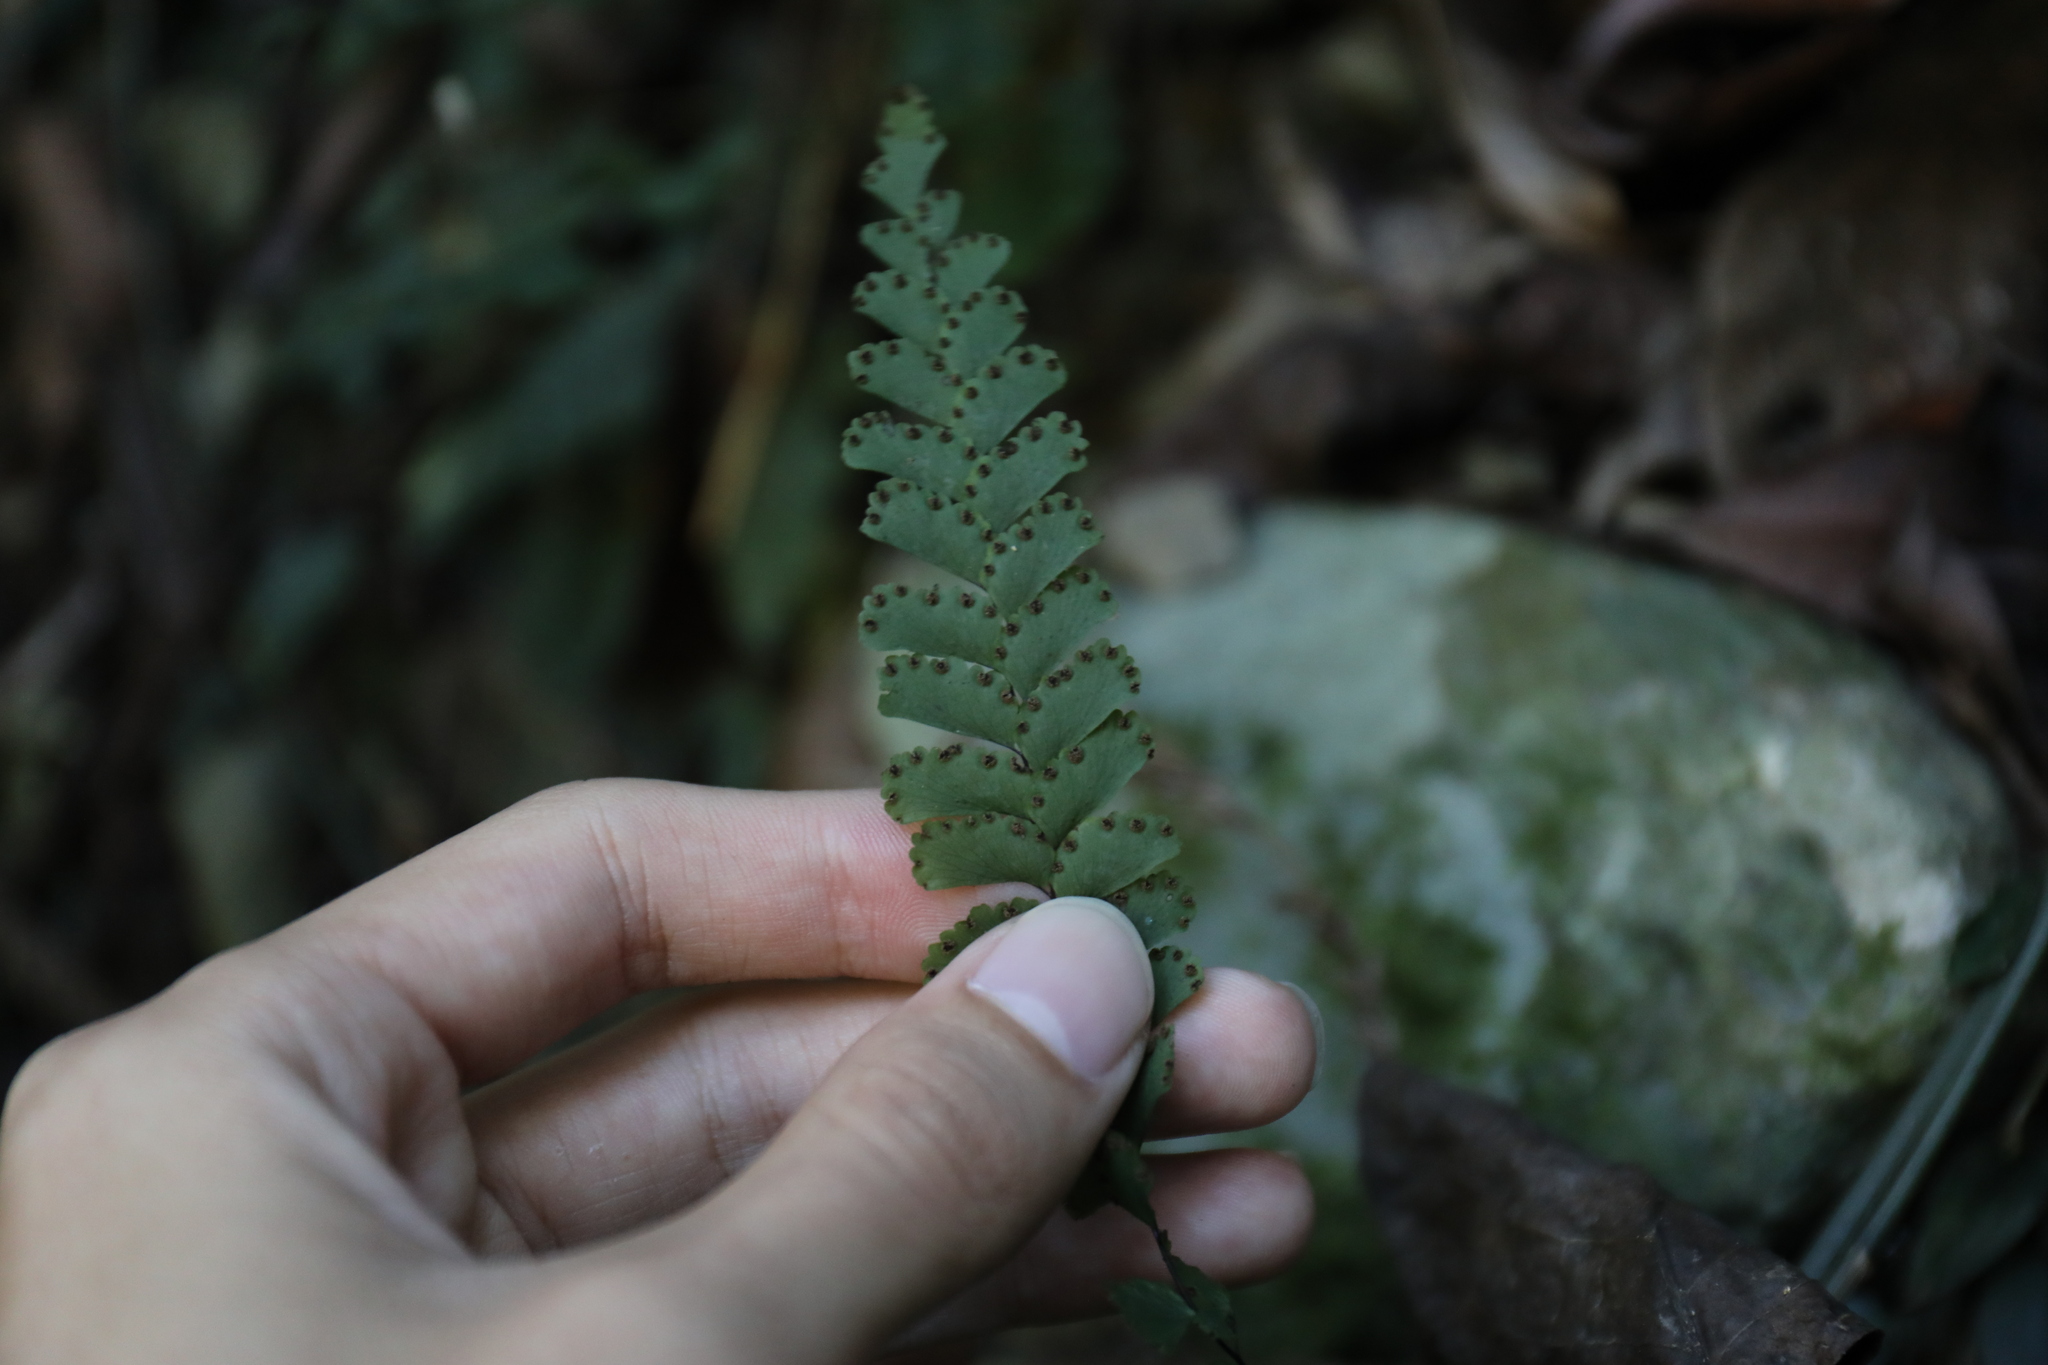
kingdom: Plantae
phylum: Tracheophyta
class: Polypodiopsida
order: Polypodiales
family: Pteridaceae
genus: Adiantum
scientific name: Adiantum diaphanum
